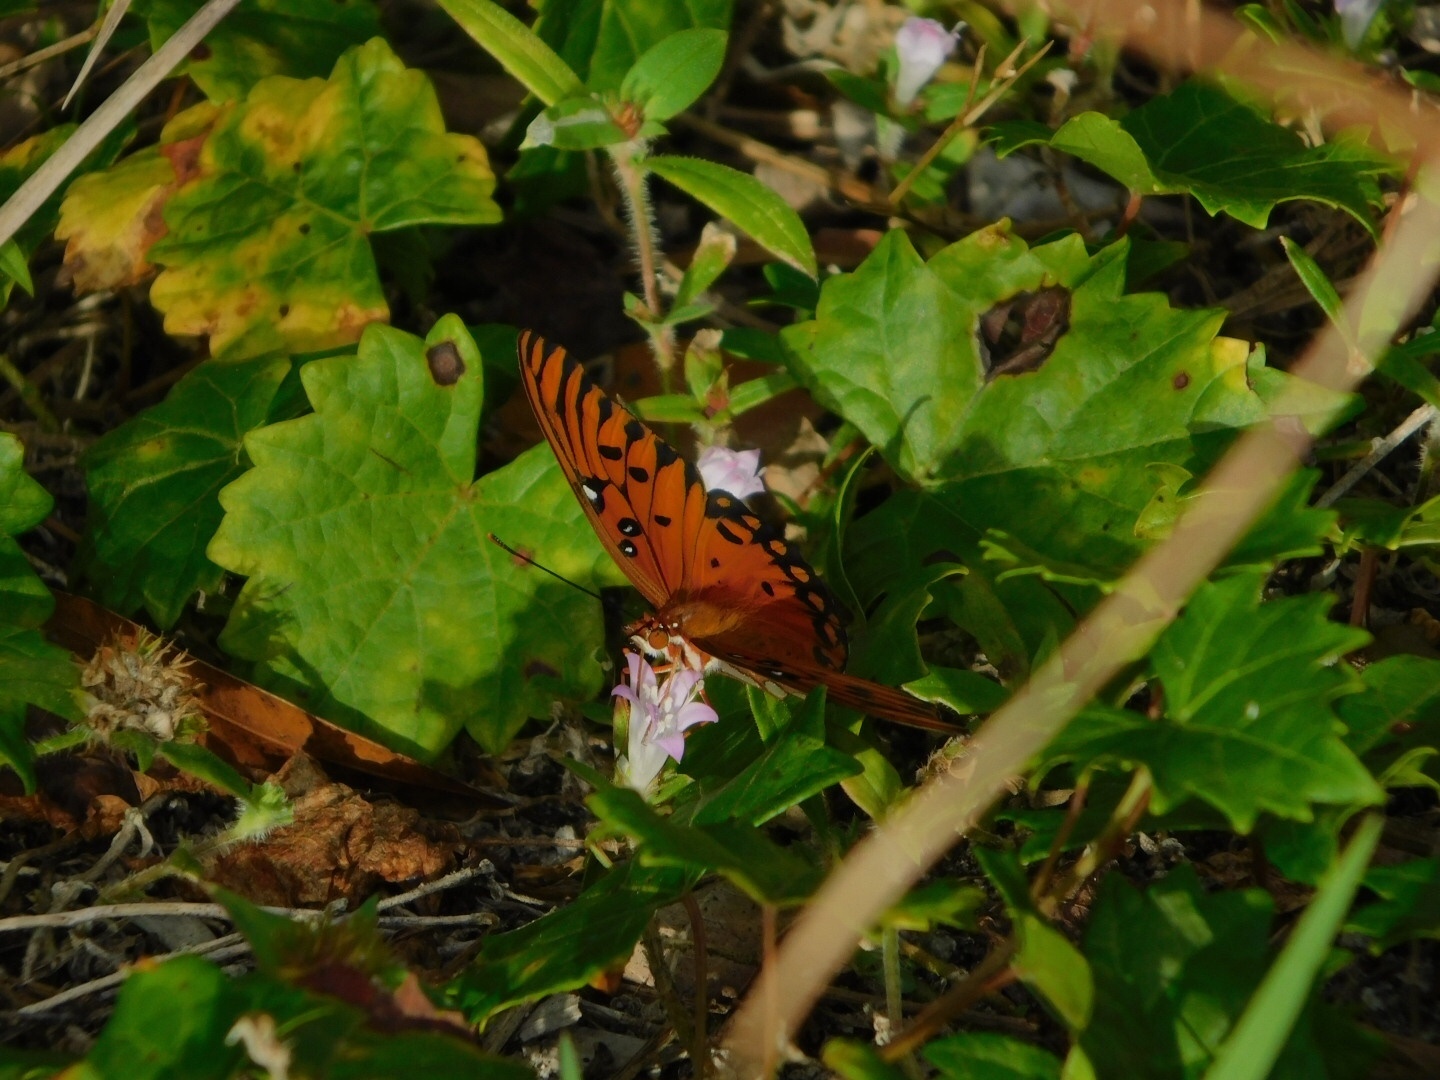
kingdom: Animalia
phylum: Arthropoda
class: Insecta
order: Lepidoptera
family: Nymphalidae
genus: Dione
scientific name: Dione vanillae
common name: Gulf fritillary
